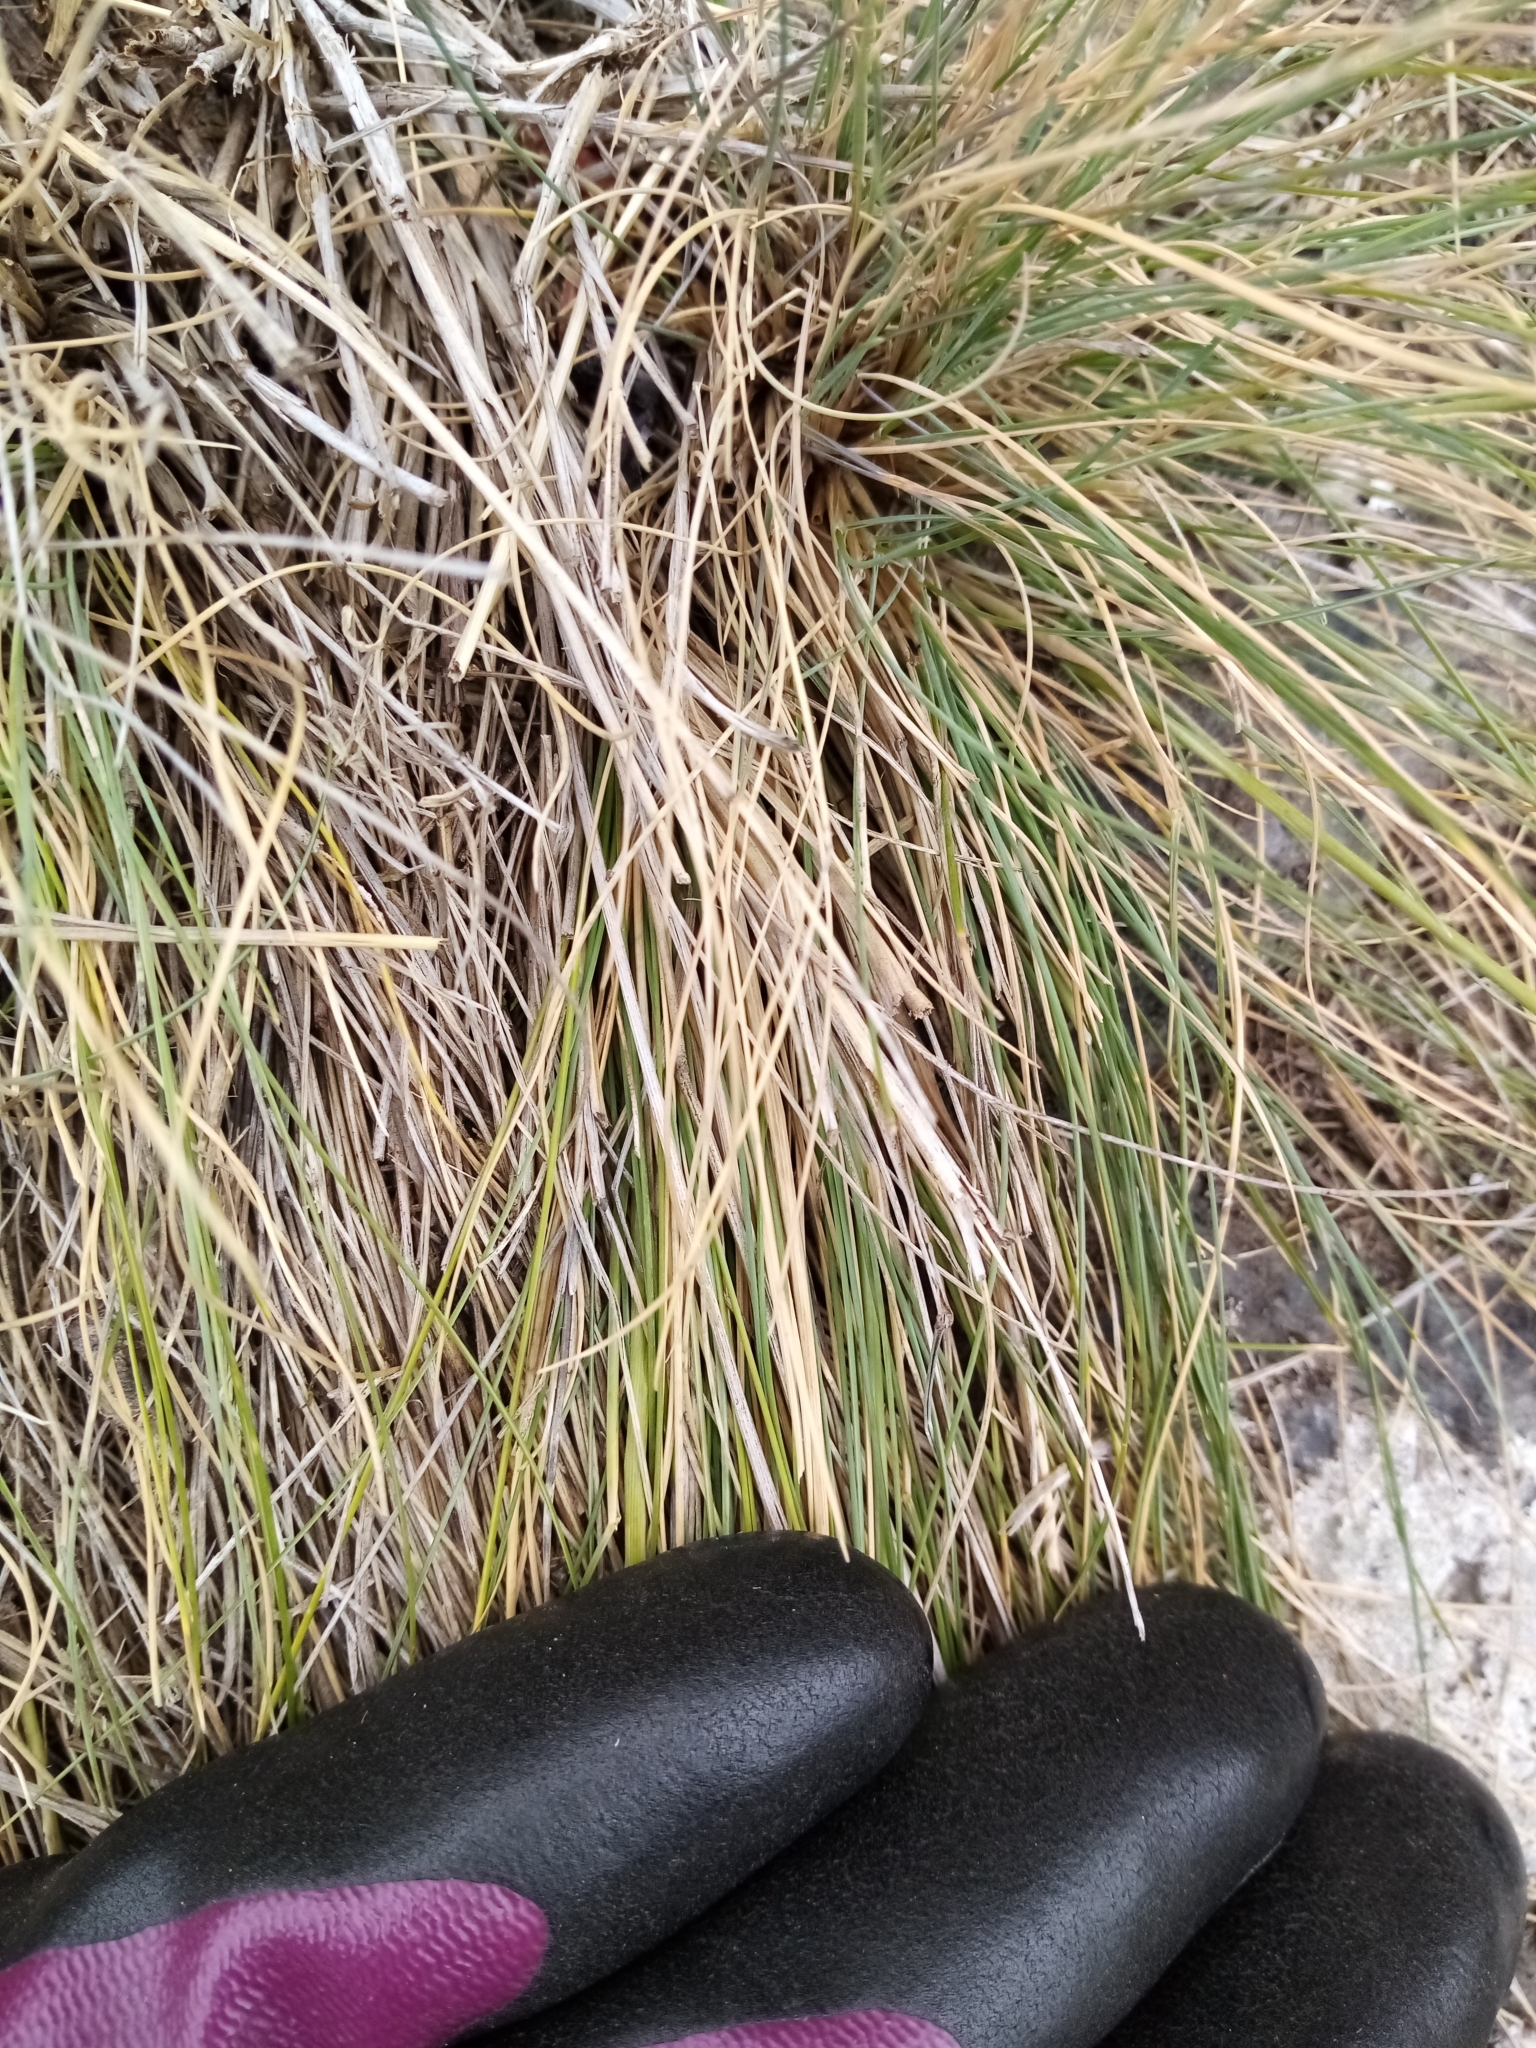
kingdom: Plantae
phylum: Tracheophyta
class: Liliopsida
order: Poales
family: Poaceae
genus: Festuca
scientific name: Festuca actae
